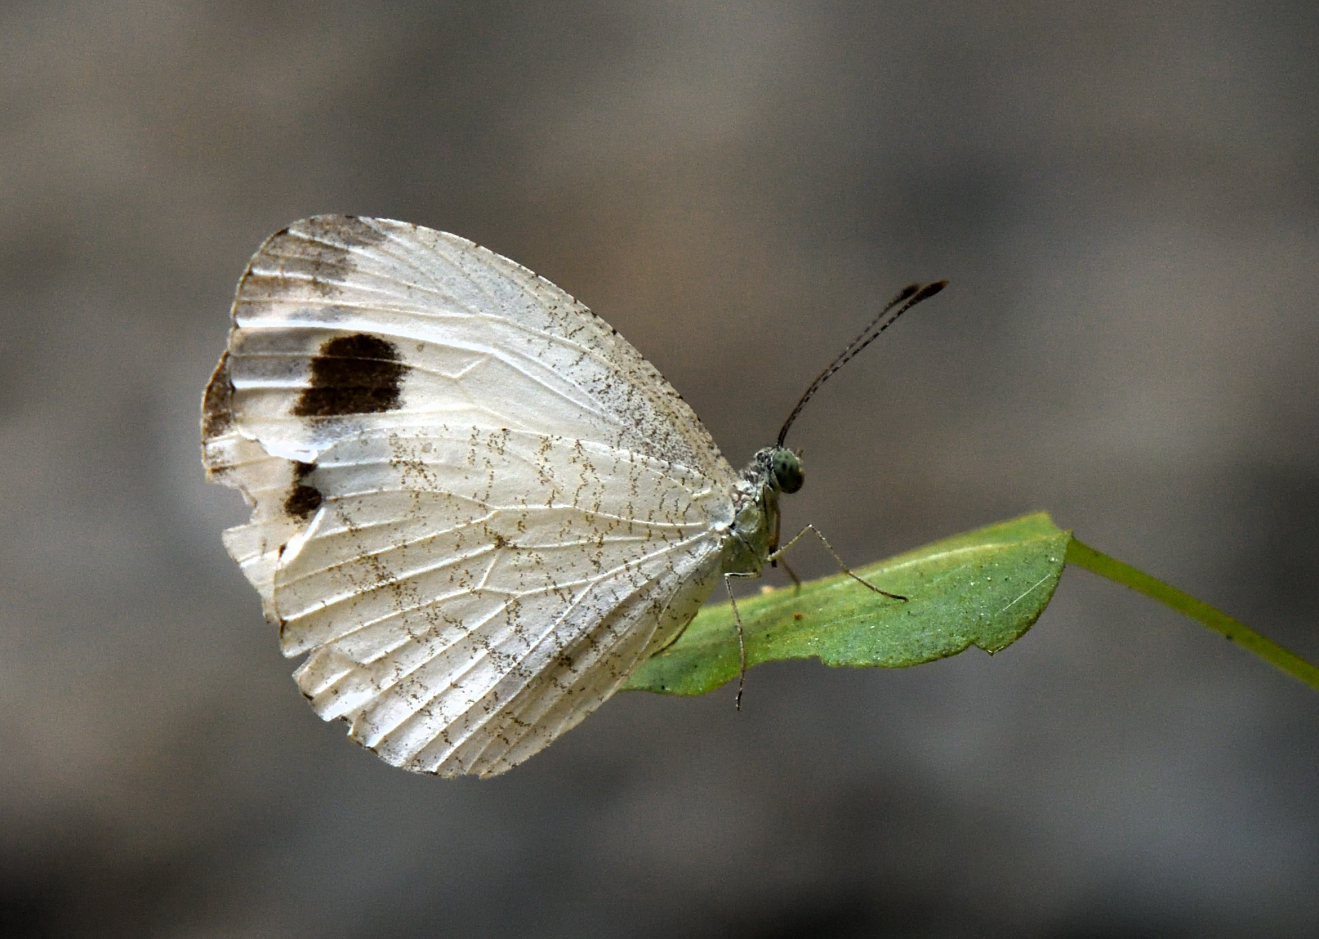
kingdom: Animalia
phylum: Arthropoda
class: Insecta
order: Lepidoptera
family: Pieridae
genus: Leptosia
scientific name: Leptosia nina
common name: Psyche
